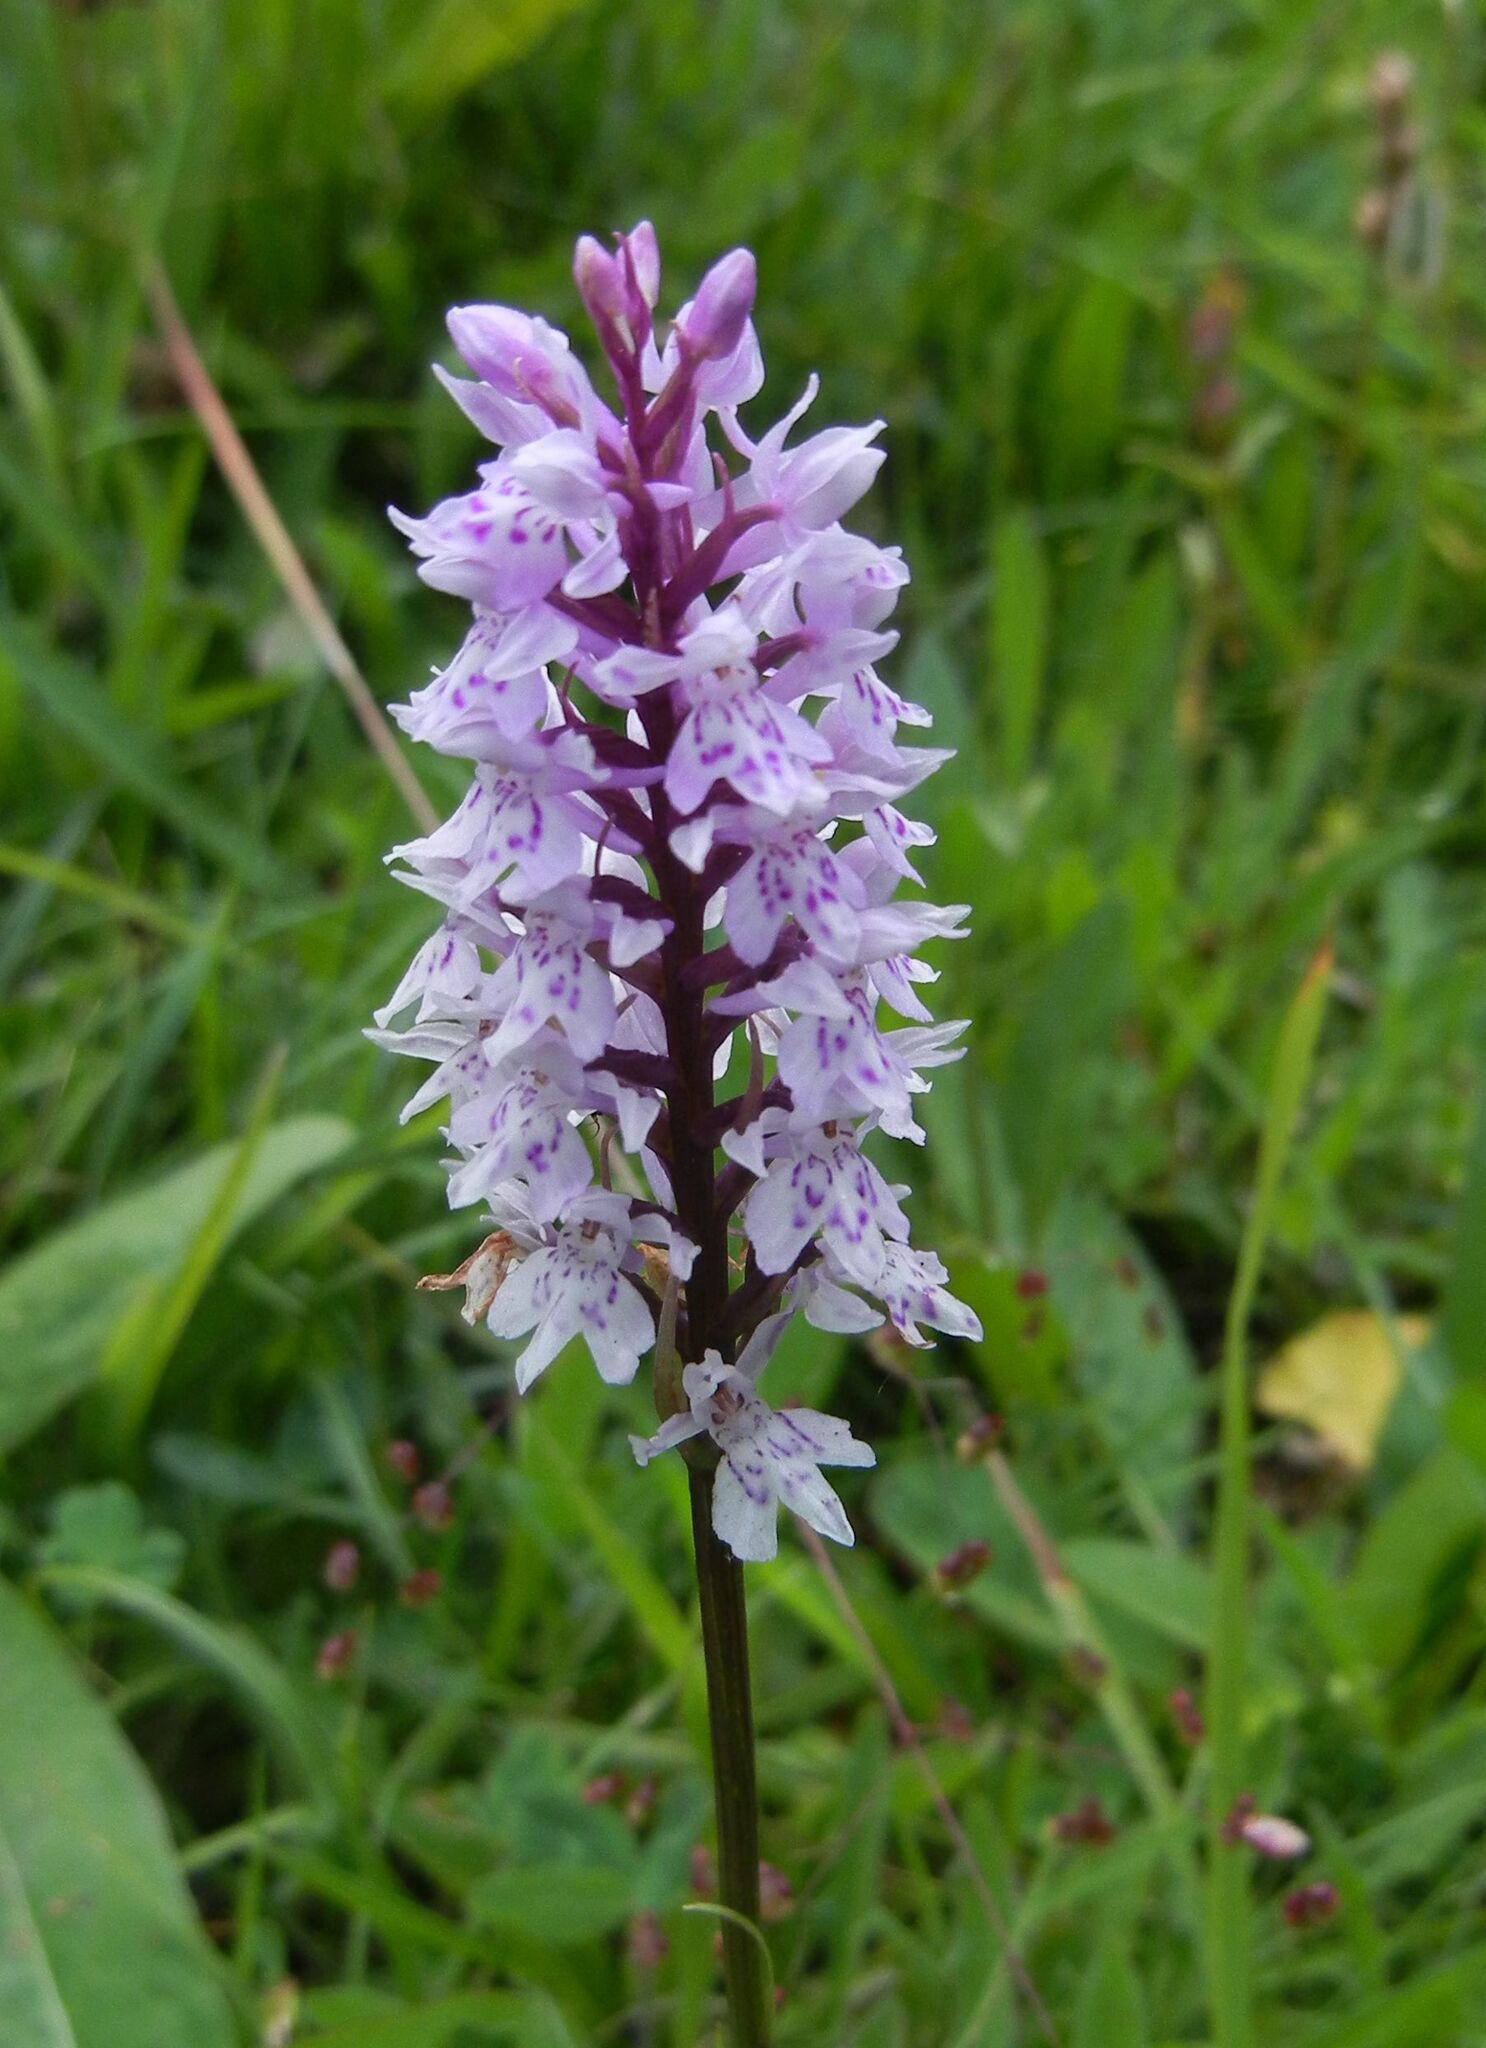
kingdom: Plantae
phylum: Tracheophyta
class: Liliopsida
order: Asparagales
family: Orchidaceae
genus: Dactylorhiza
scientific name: Dactylorhiza maculata
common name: Heath spotted-orchid
